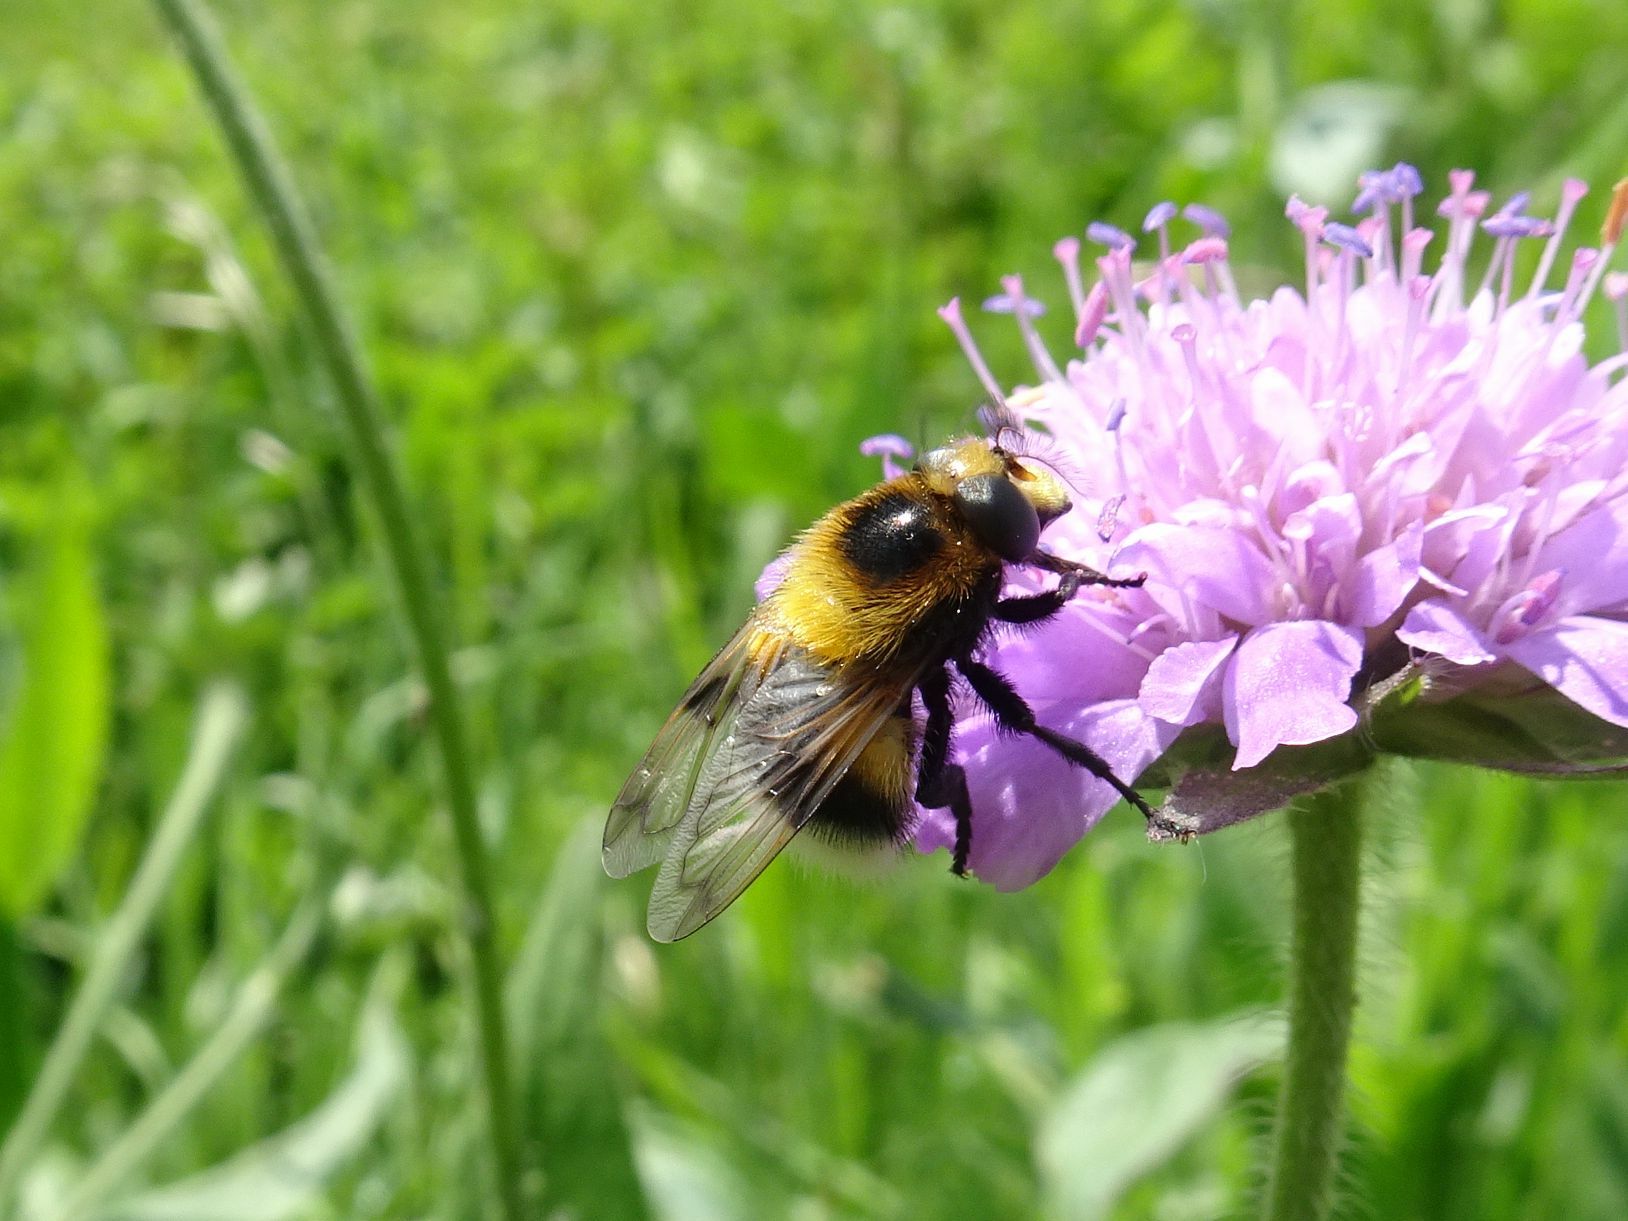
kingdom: Animalia
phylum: Arthropoda
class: Insecta
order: Diptera
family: Syrphidae
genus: Volucella
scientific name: Volucella bombylans
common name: Bumble bee hover fly
